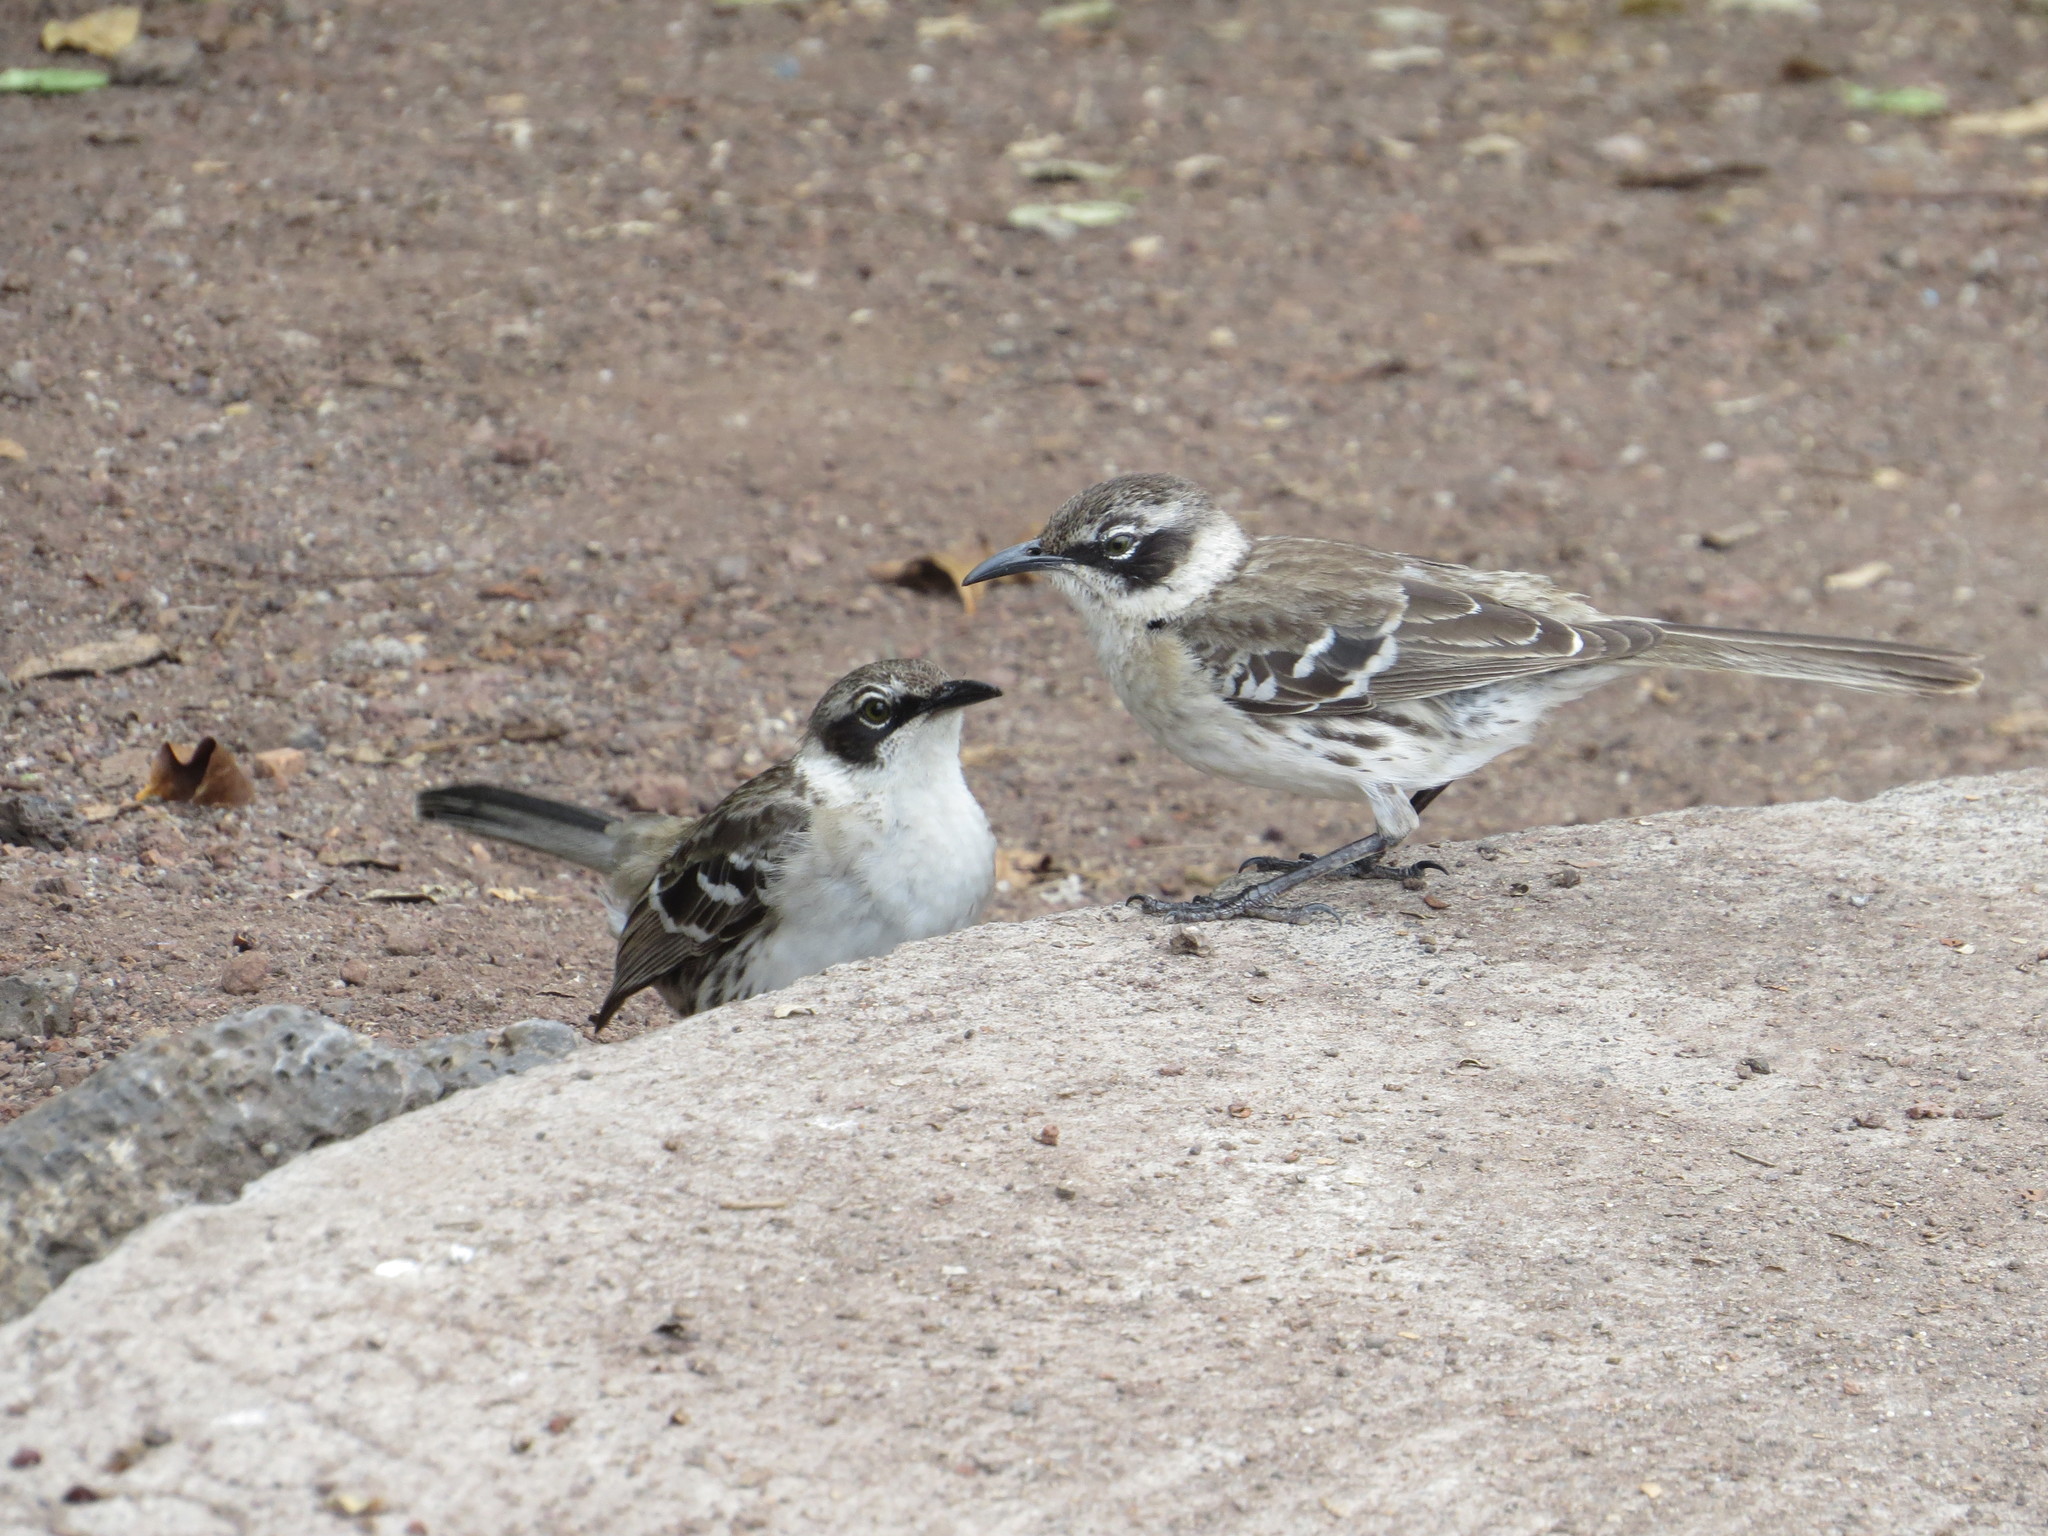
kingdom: Animalia
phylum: Chordata
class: Aves
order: Passeriformes
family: Mimidae
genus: Mimus
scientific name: Mimus parvulus
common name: Galapagos mockingbird
